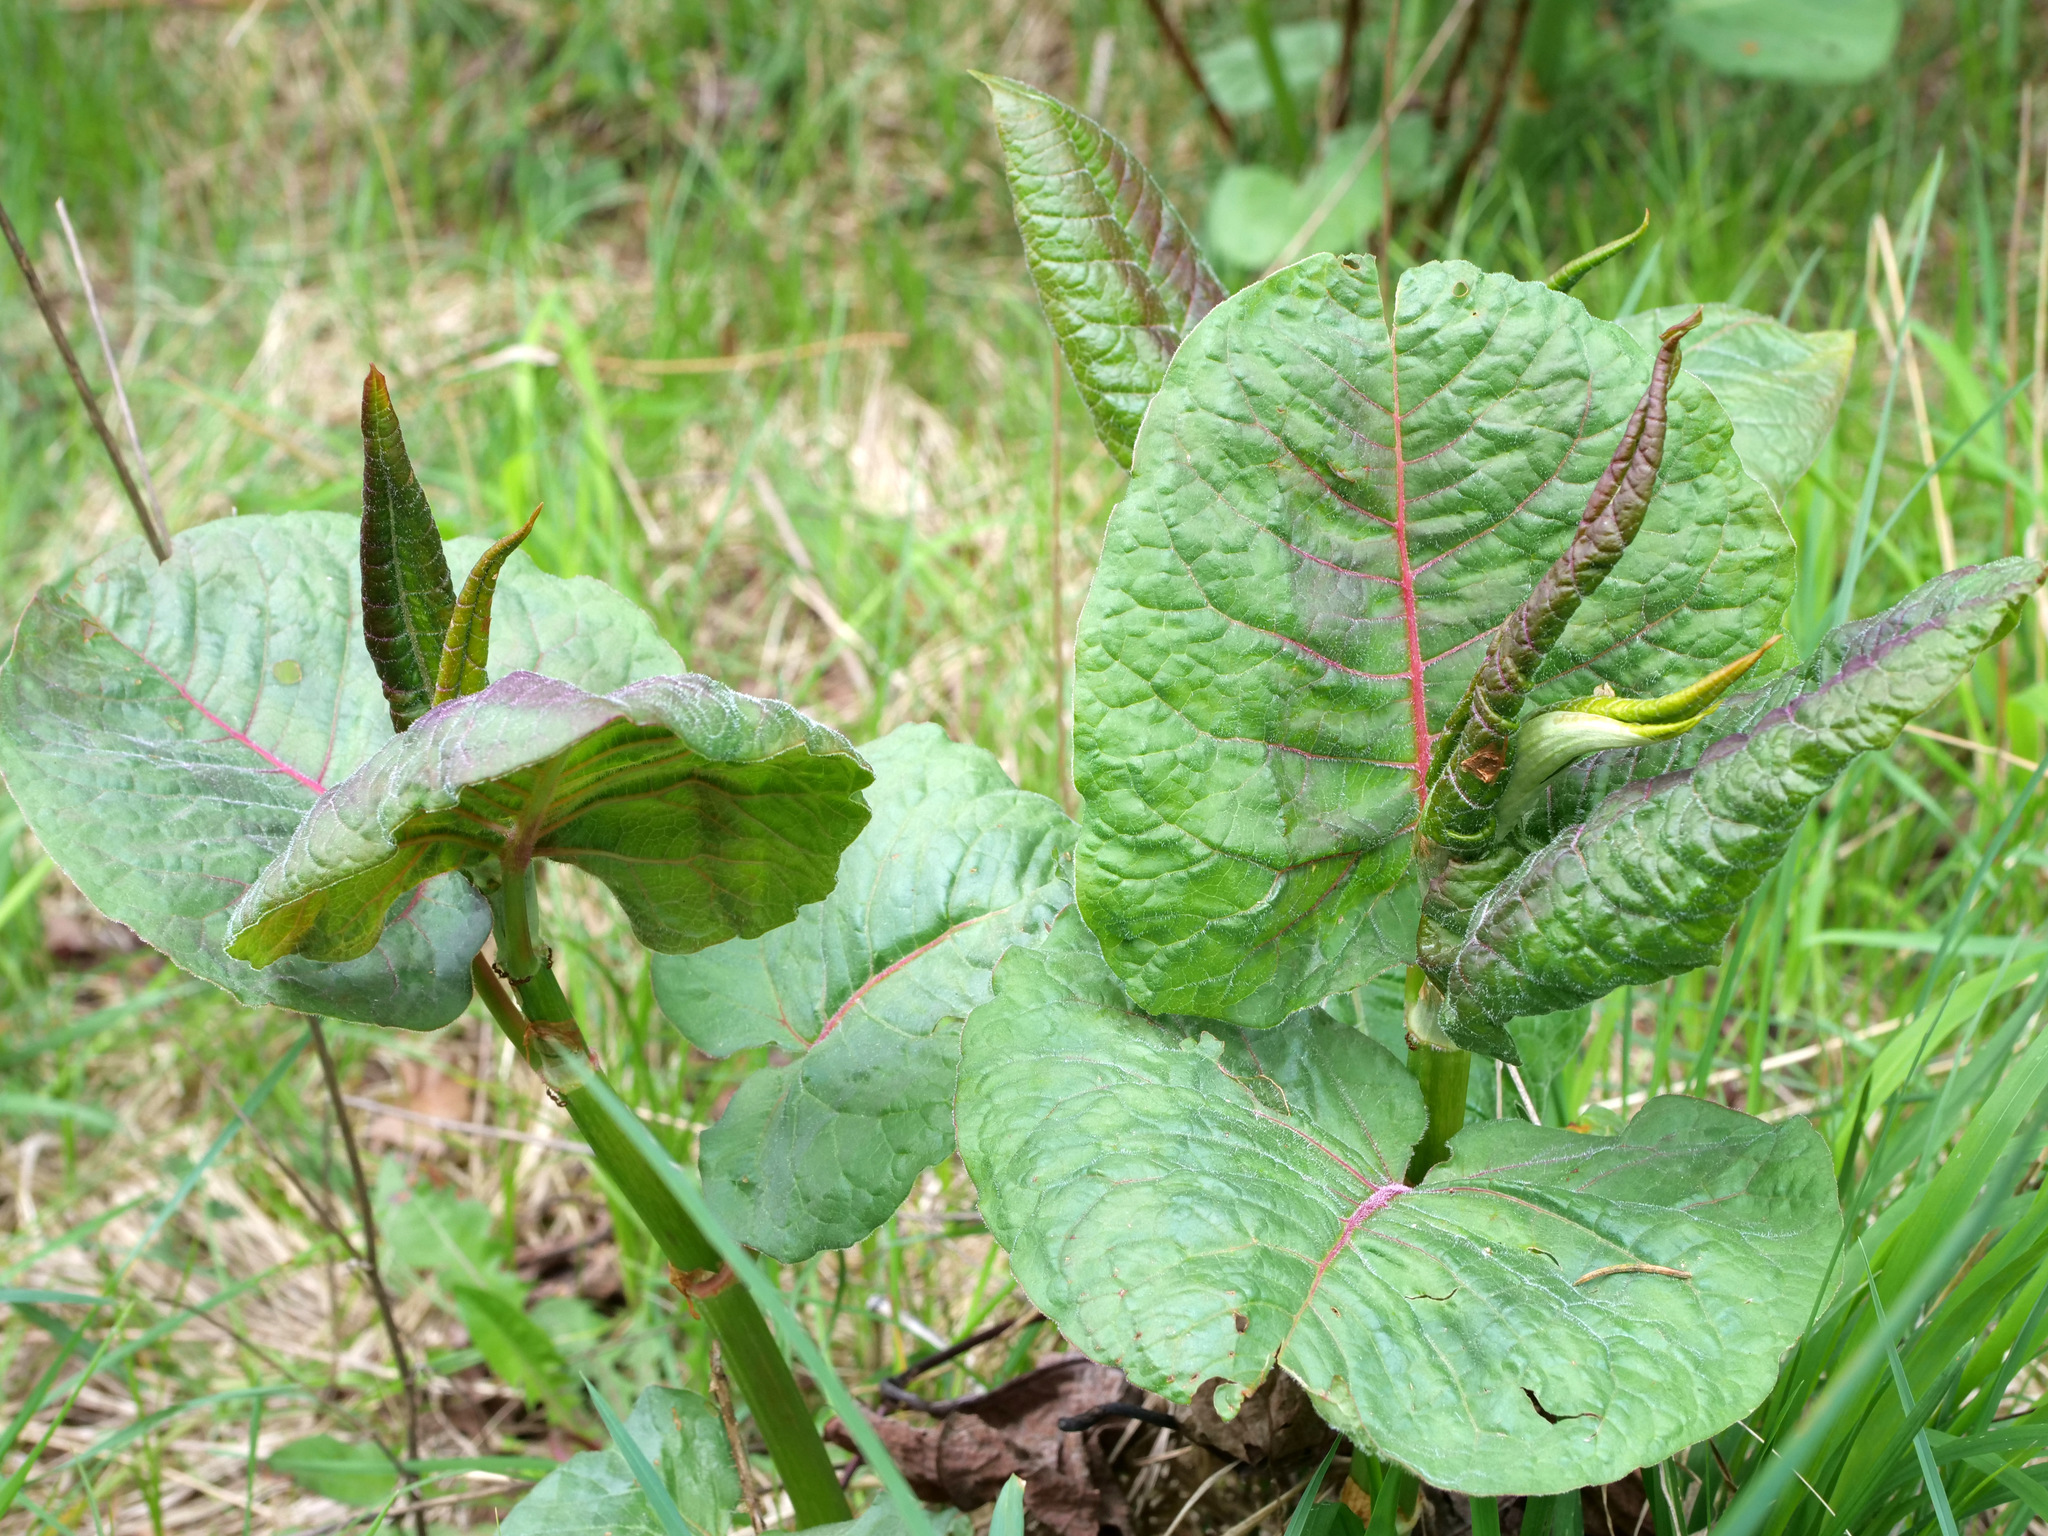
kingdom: Plantae
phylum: Tracheophyta
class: Magnoliopsida
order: Caryophyllales
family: Polygonaceae
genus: Reynoutria
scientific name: Reynoutria sachalinensis
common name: Giant knotweed
